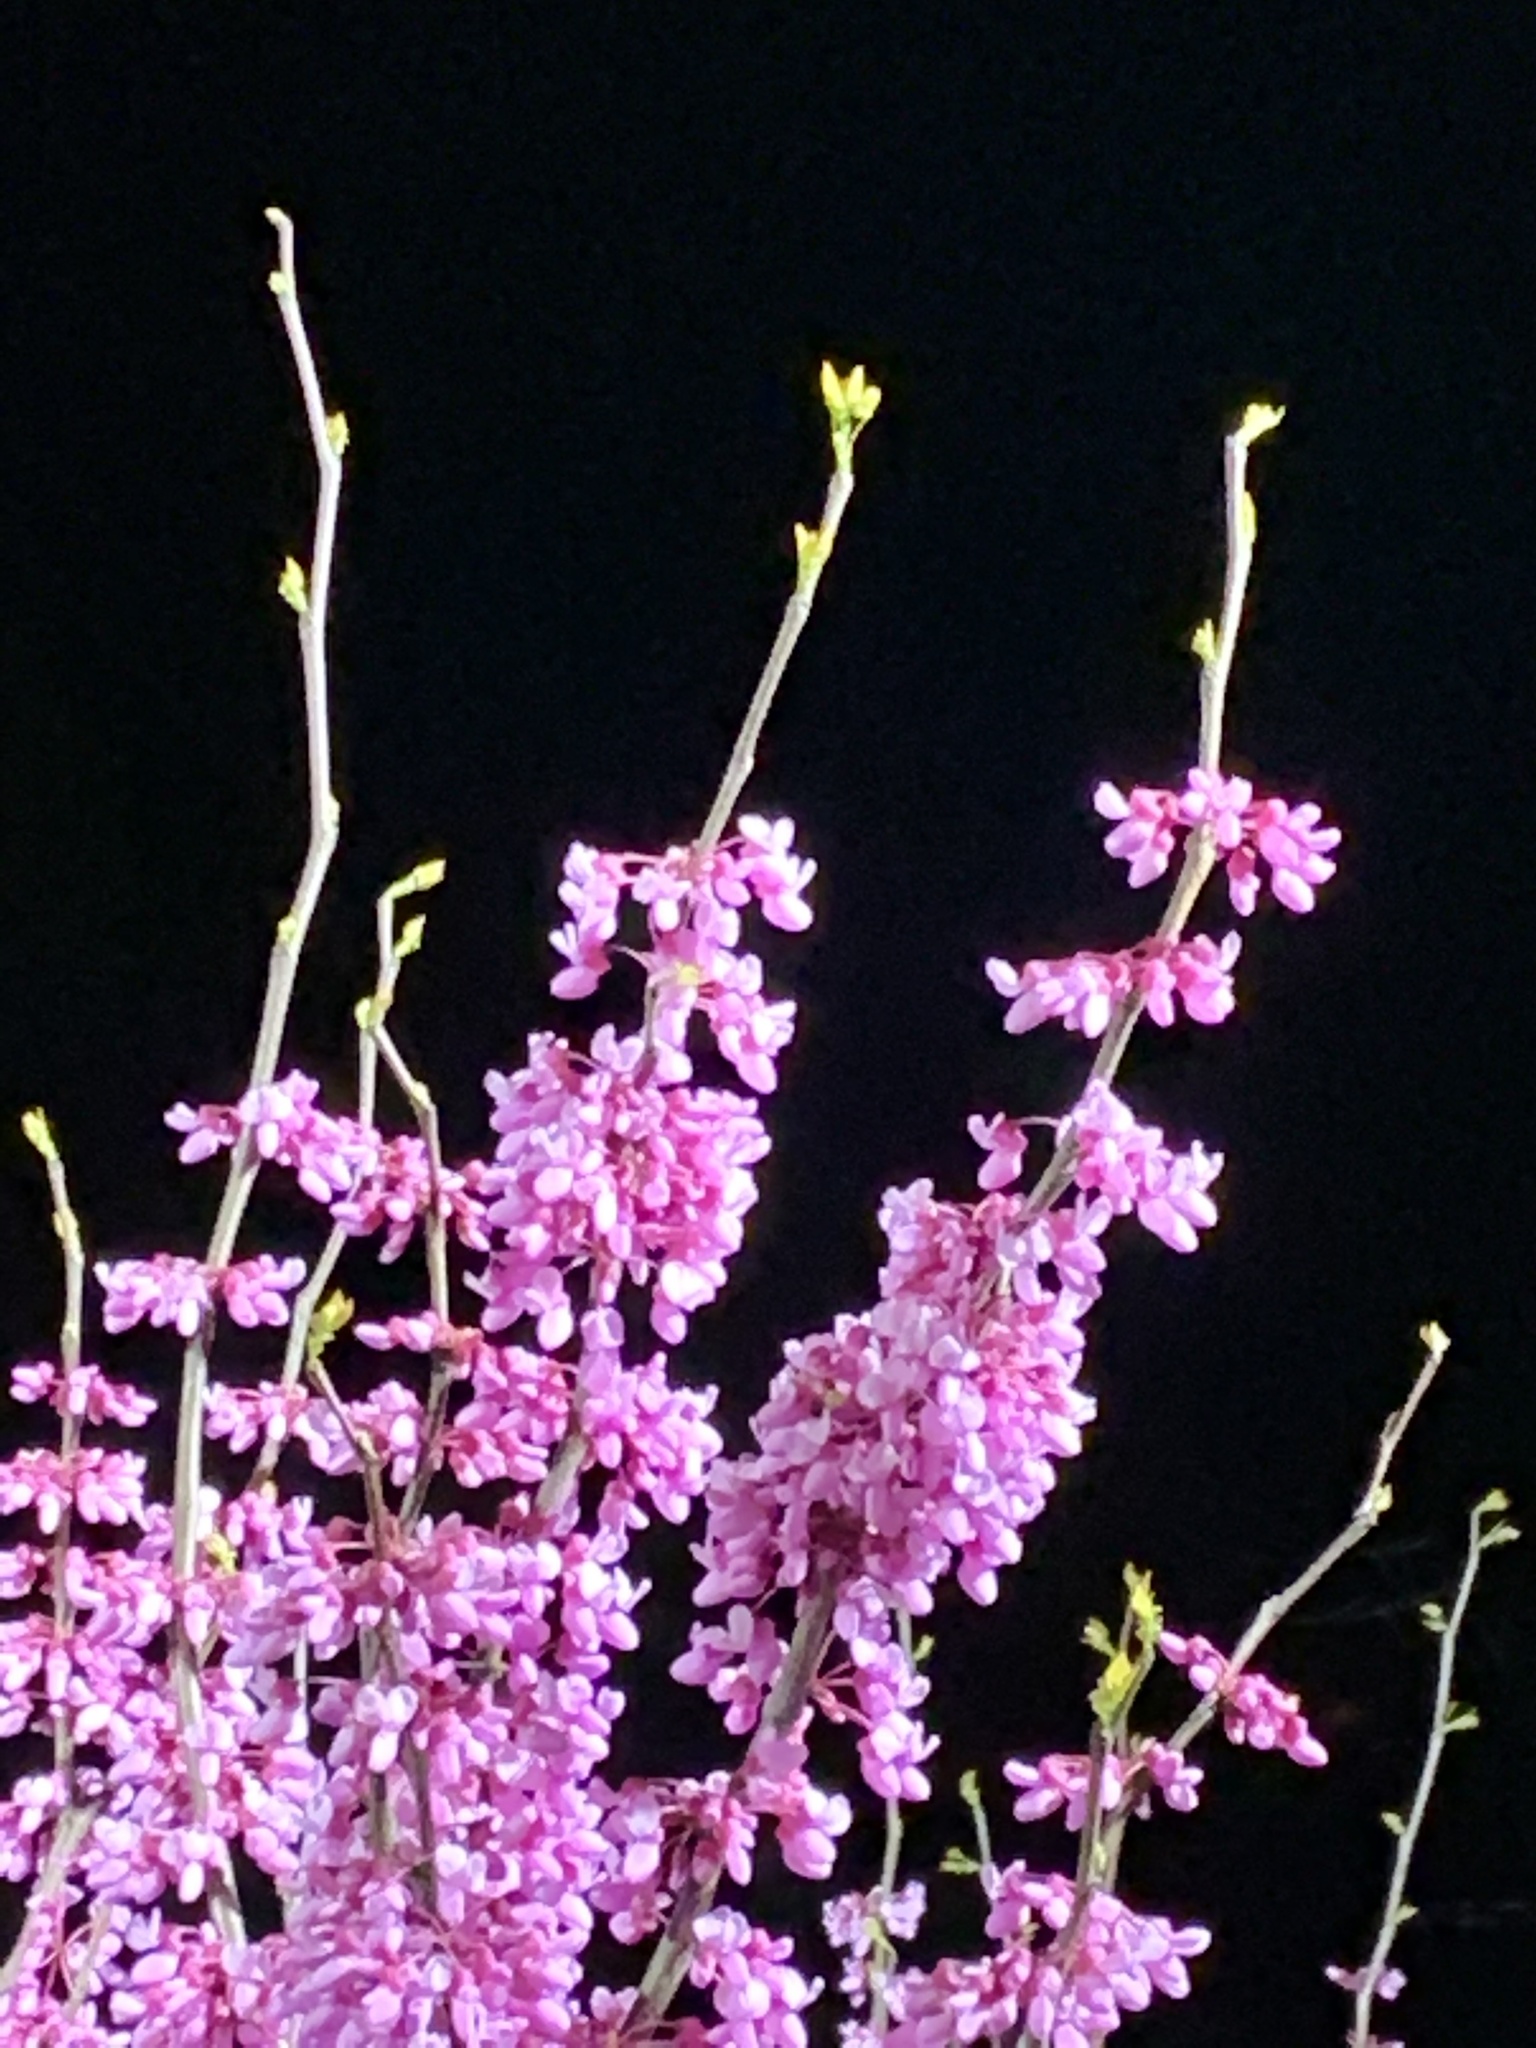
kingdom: Plantae
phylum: Tracheophyta
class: Magnoliopsida
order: Fabales
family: Fabaceae
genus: Cercis
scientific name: Cercis canadensis
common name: Eastern redbud
